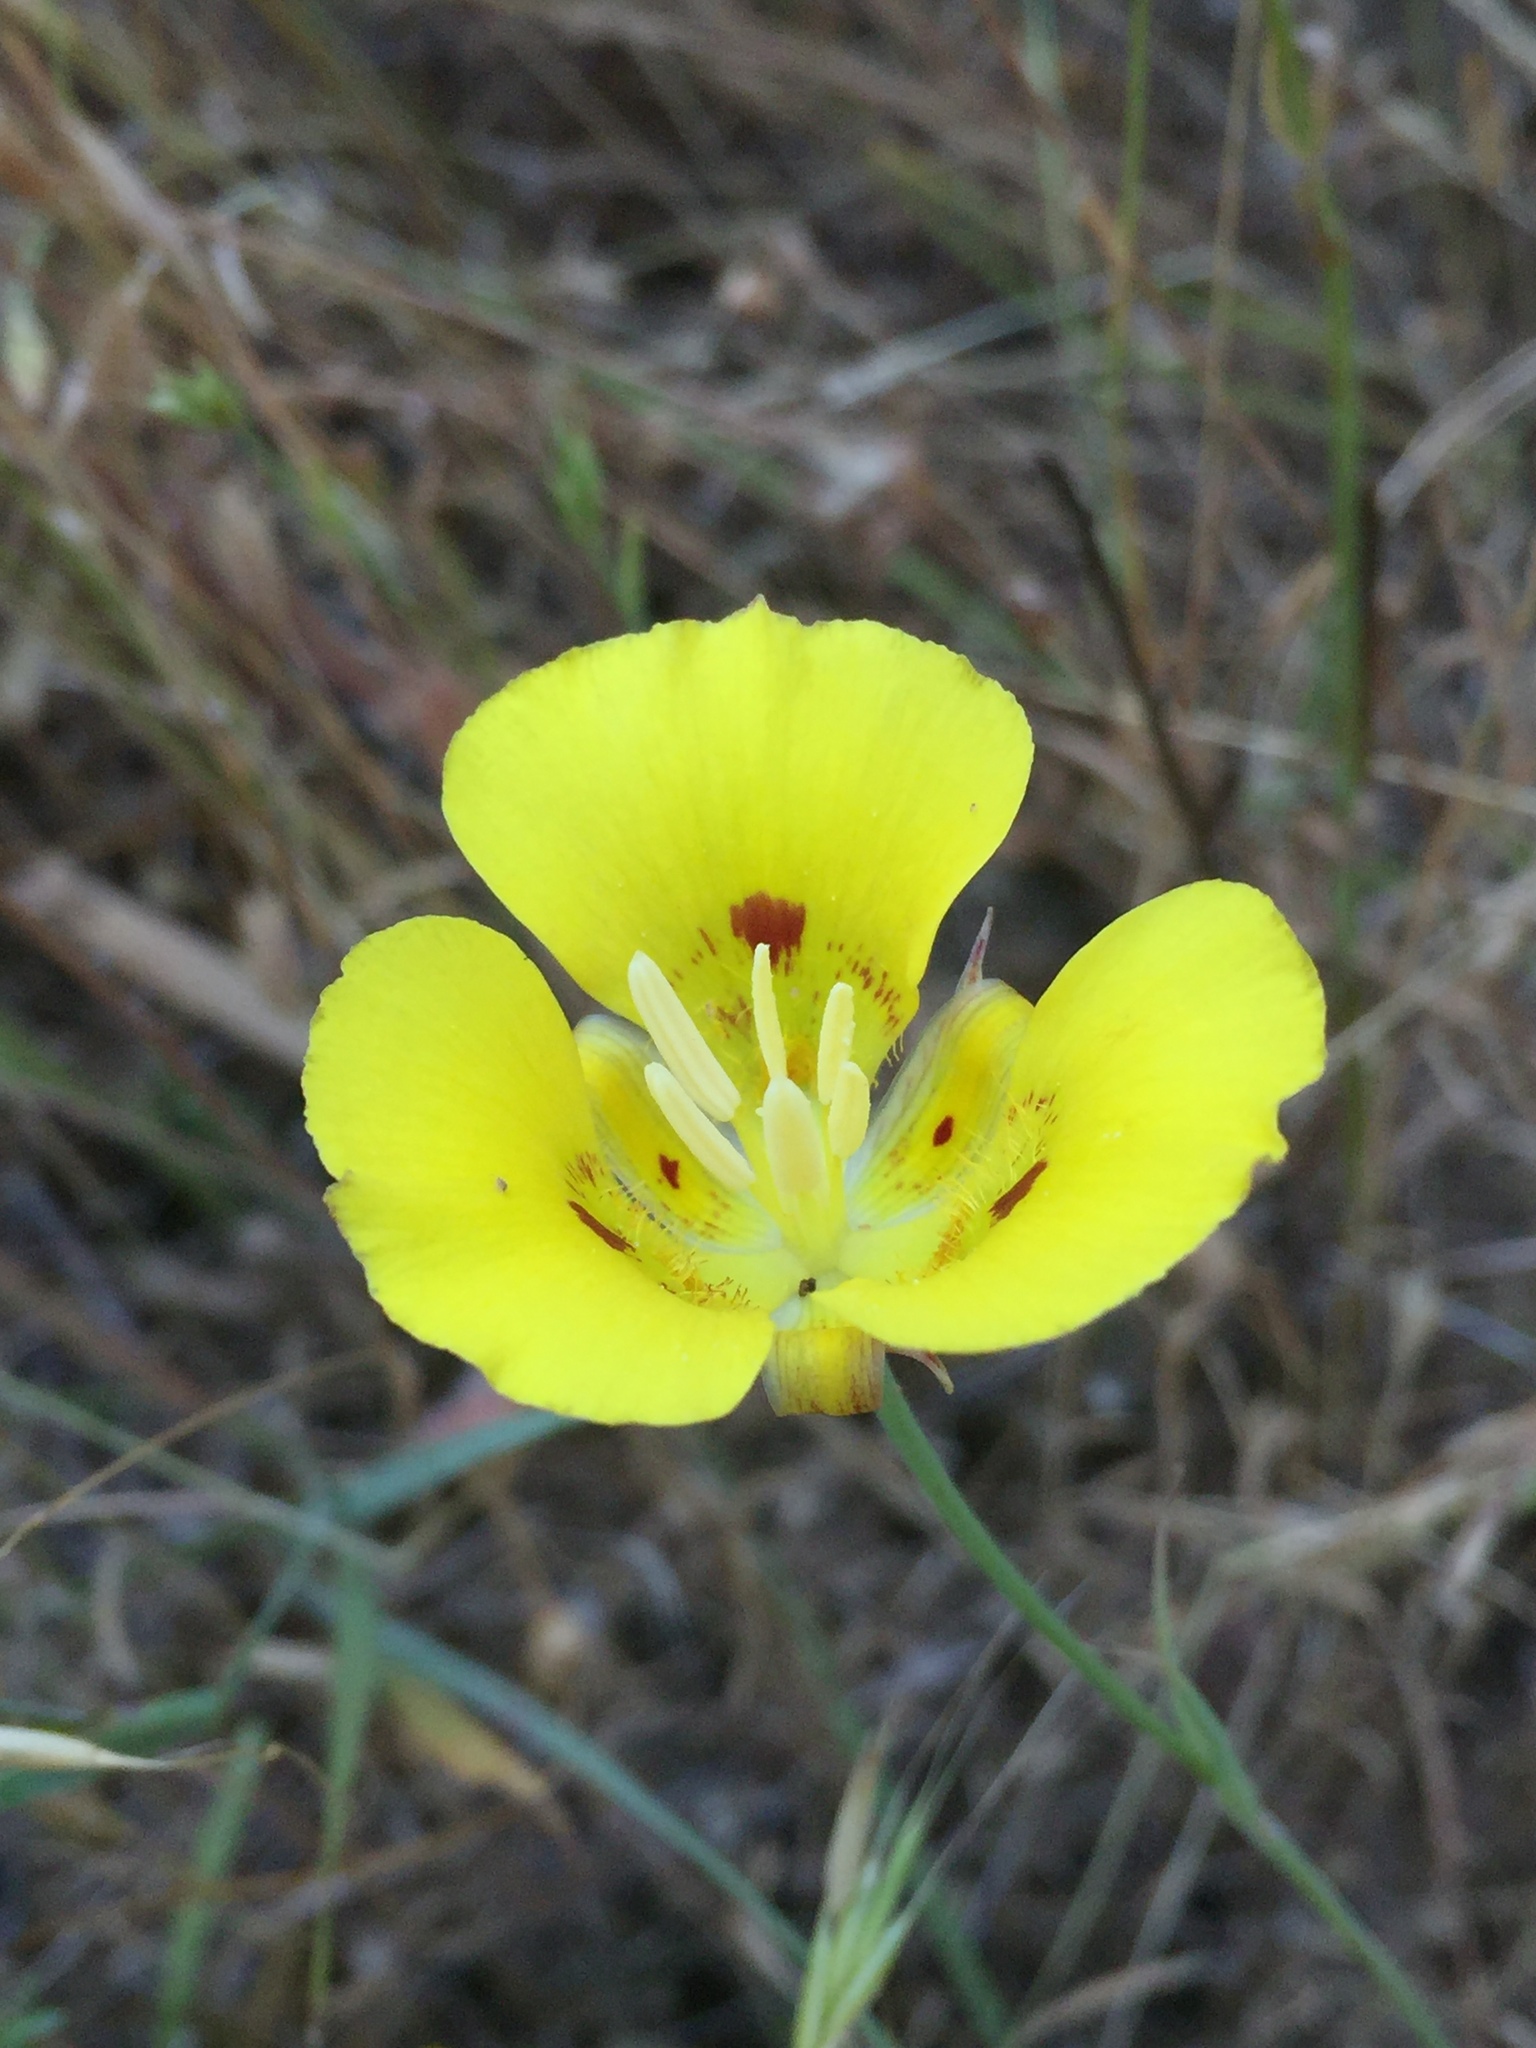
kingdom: Plantae
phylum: Tracheophyta
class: Liliopsida
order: Liliales
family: Liliaceae
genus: Calochortus
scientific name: Calochortus luteus
